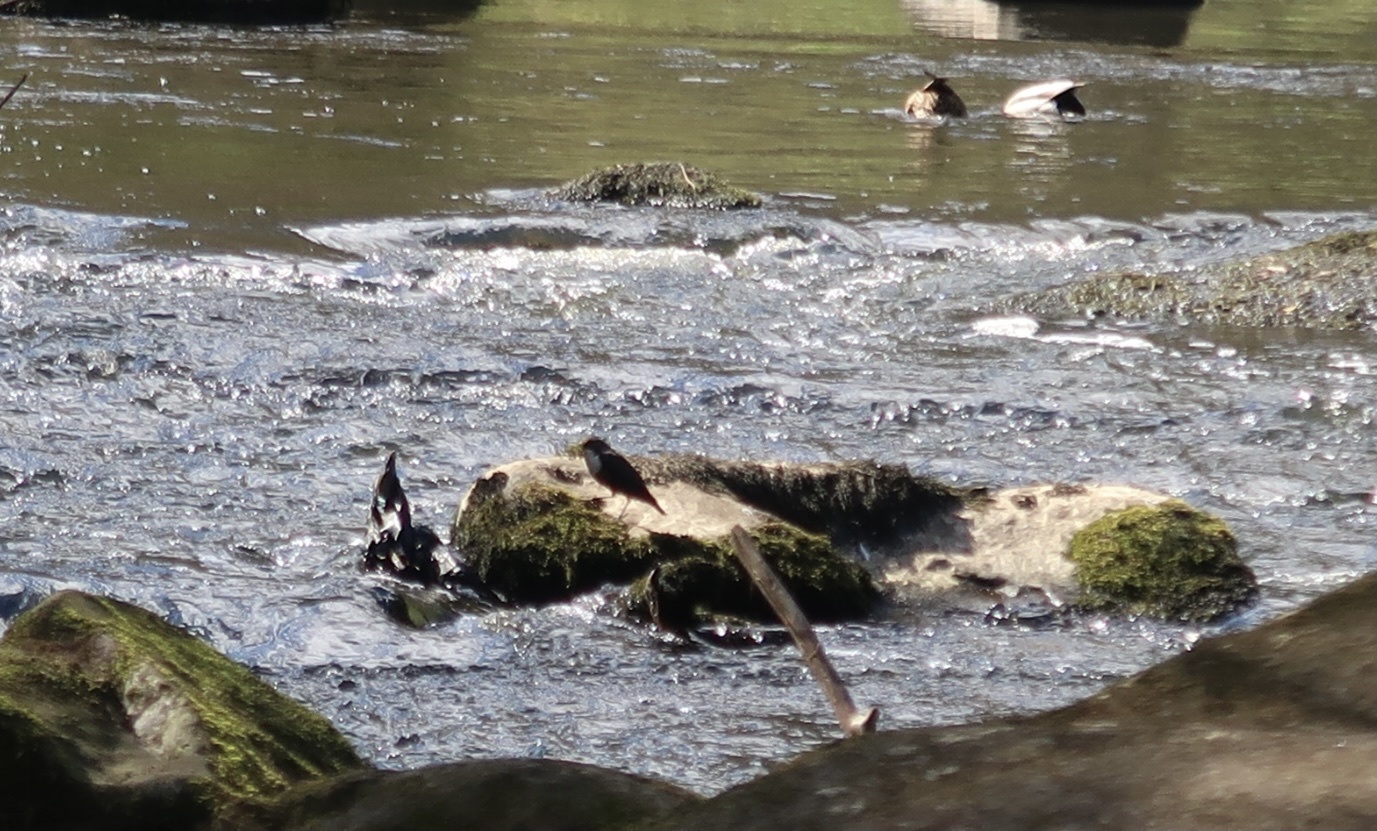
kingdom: Animalia
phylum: Chordata
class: Aves
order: Passeriformes
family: Cinclidae
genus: Cinclus
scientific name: Cinclus cinclus
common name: White-throated dipper
